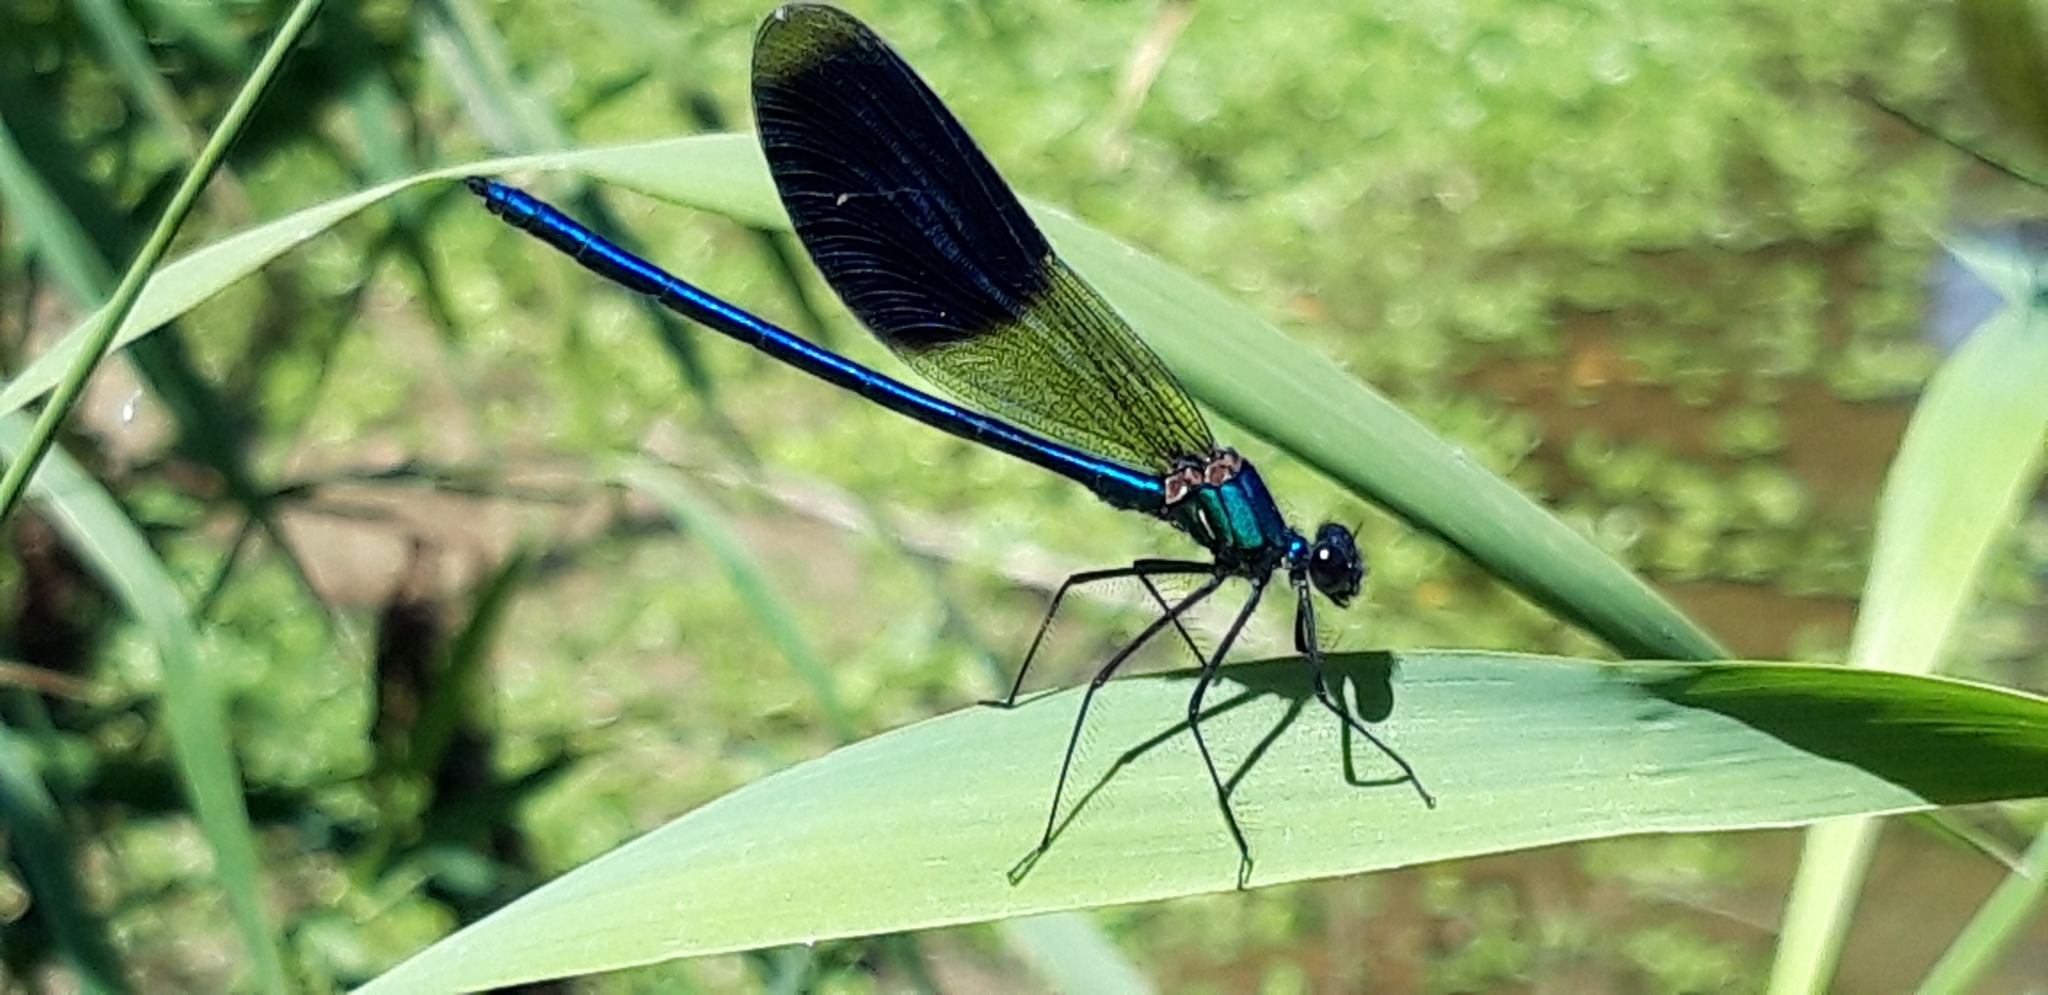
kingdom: Animalia
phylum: Arthropoda
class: Insecta
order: Odonata
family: Calopterygidae
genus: Calopteryx
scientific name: Calopteryx splendens
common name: Banded demoiselle
